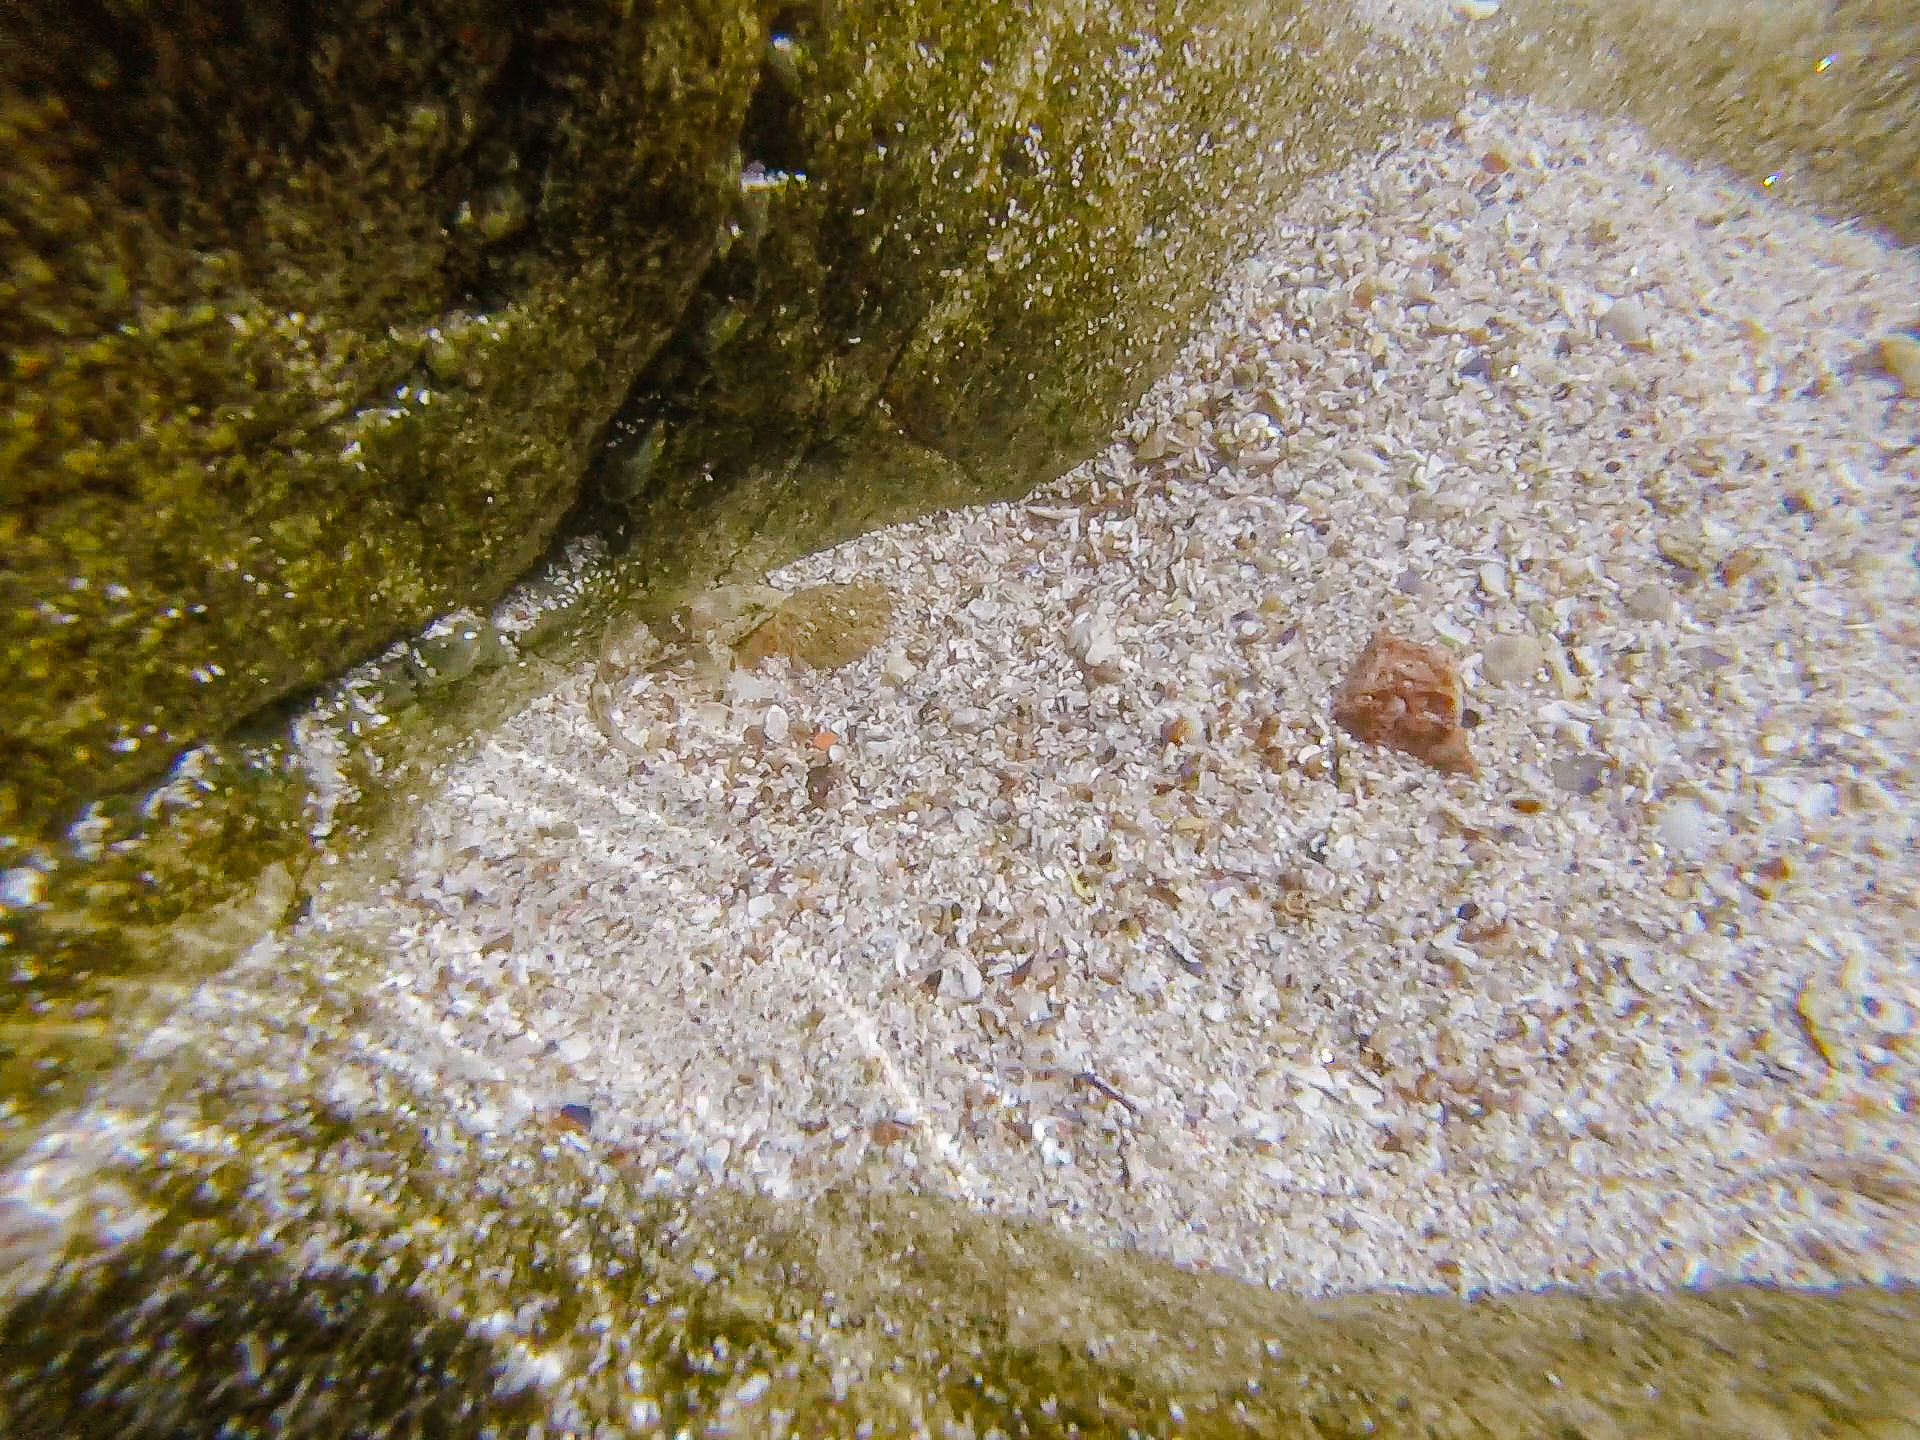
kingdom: Animalia
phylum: Chordata
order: Perciformes
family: Gobiidae
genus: Gobius
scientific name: Gobius cobitis
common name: Giant goby
